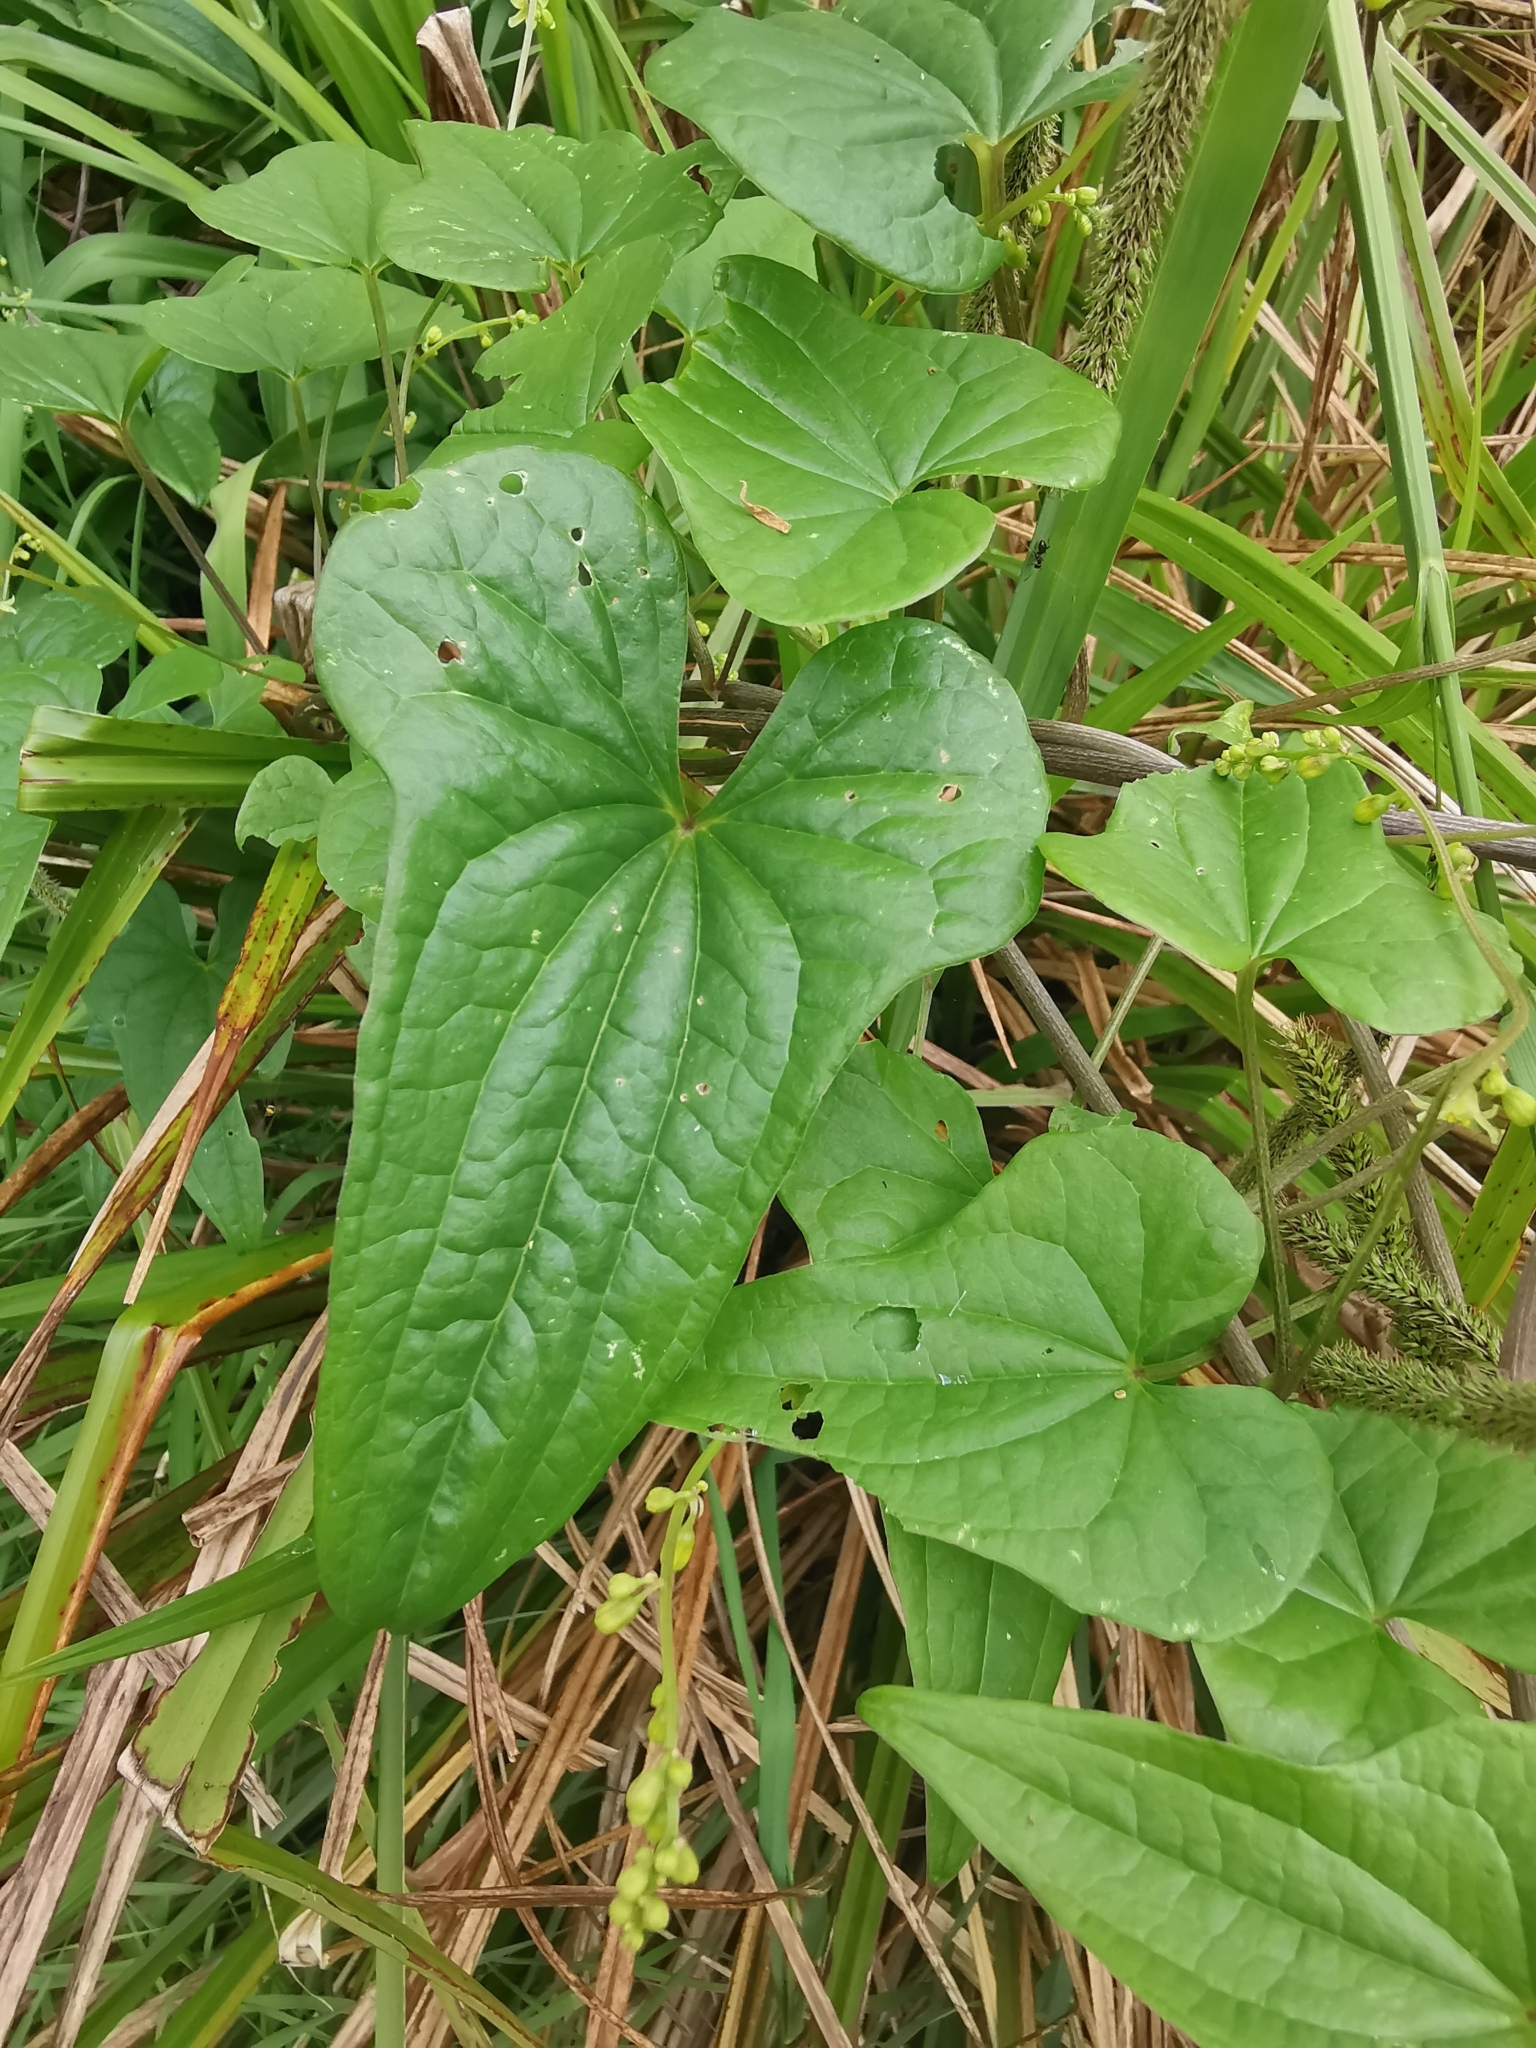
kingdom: Plantae
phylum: Tracheophyta
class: Liliopsida
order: Dioscoreales
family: Dioscoreaceae
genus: Dioscorea
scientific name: Dioscorea communis
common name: Black-bindweed
